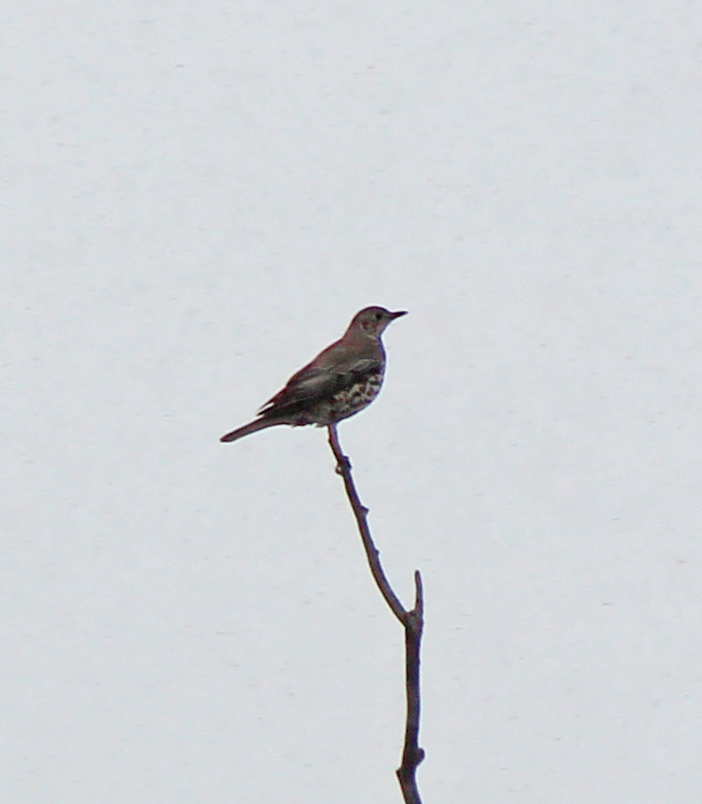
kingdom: Animalia
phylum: Chordata
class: Aves
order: Passeriformes
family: Turdidae
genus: Turdus
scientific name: Turdus viscivorus
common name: Mistle thrush
